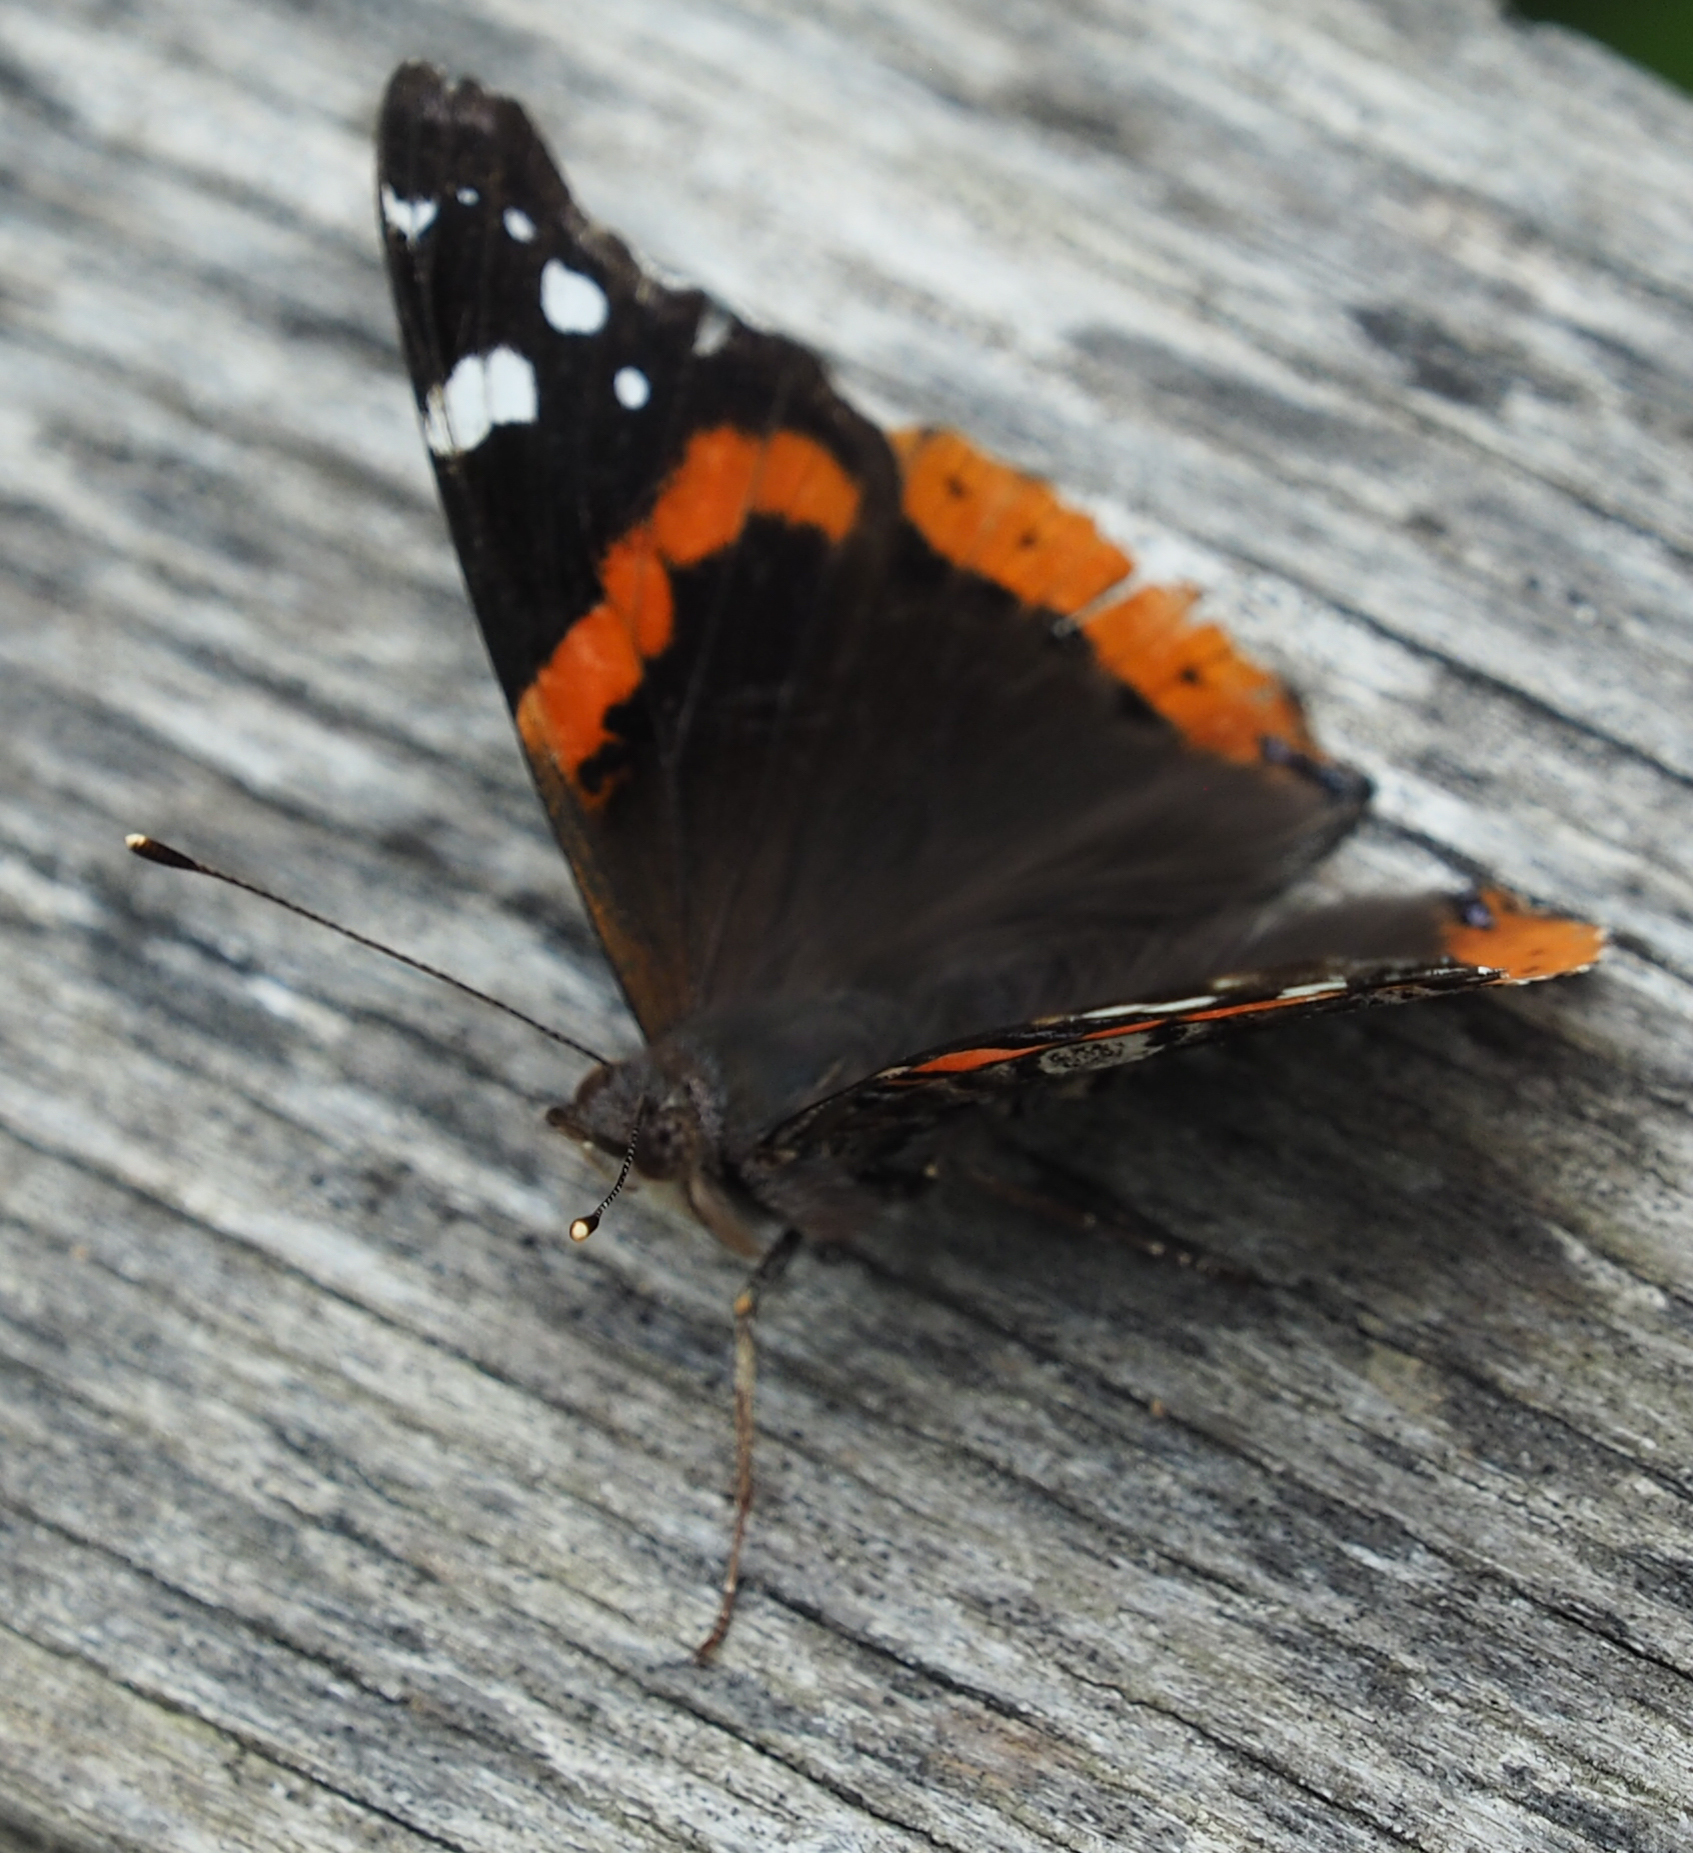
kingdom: Animalia
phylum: Arthropoda
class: Insecta
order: Lepidoptera
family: Nymphalidae
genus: Vanessa
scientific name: Vanessa atalanta
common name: Red admiral
